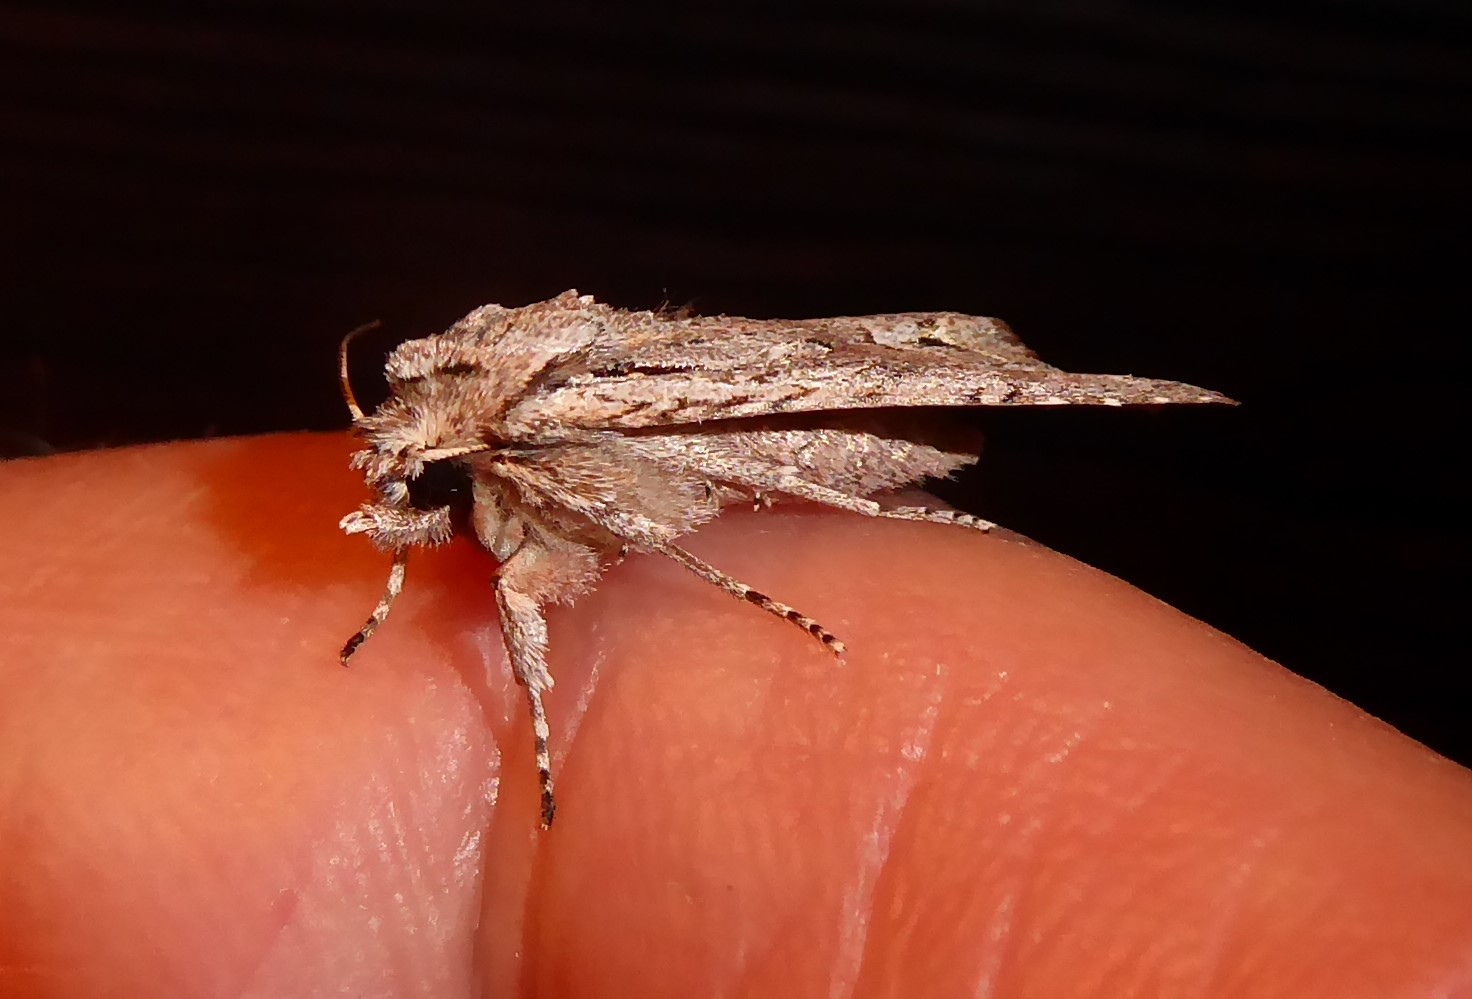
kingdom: Animalia
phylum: Arthropoda
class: Insecta
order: Lepidoptera
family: Noctuidae
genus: Ichneutica
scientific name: Ichneutica mutans
